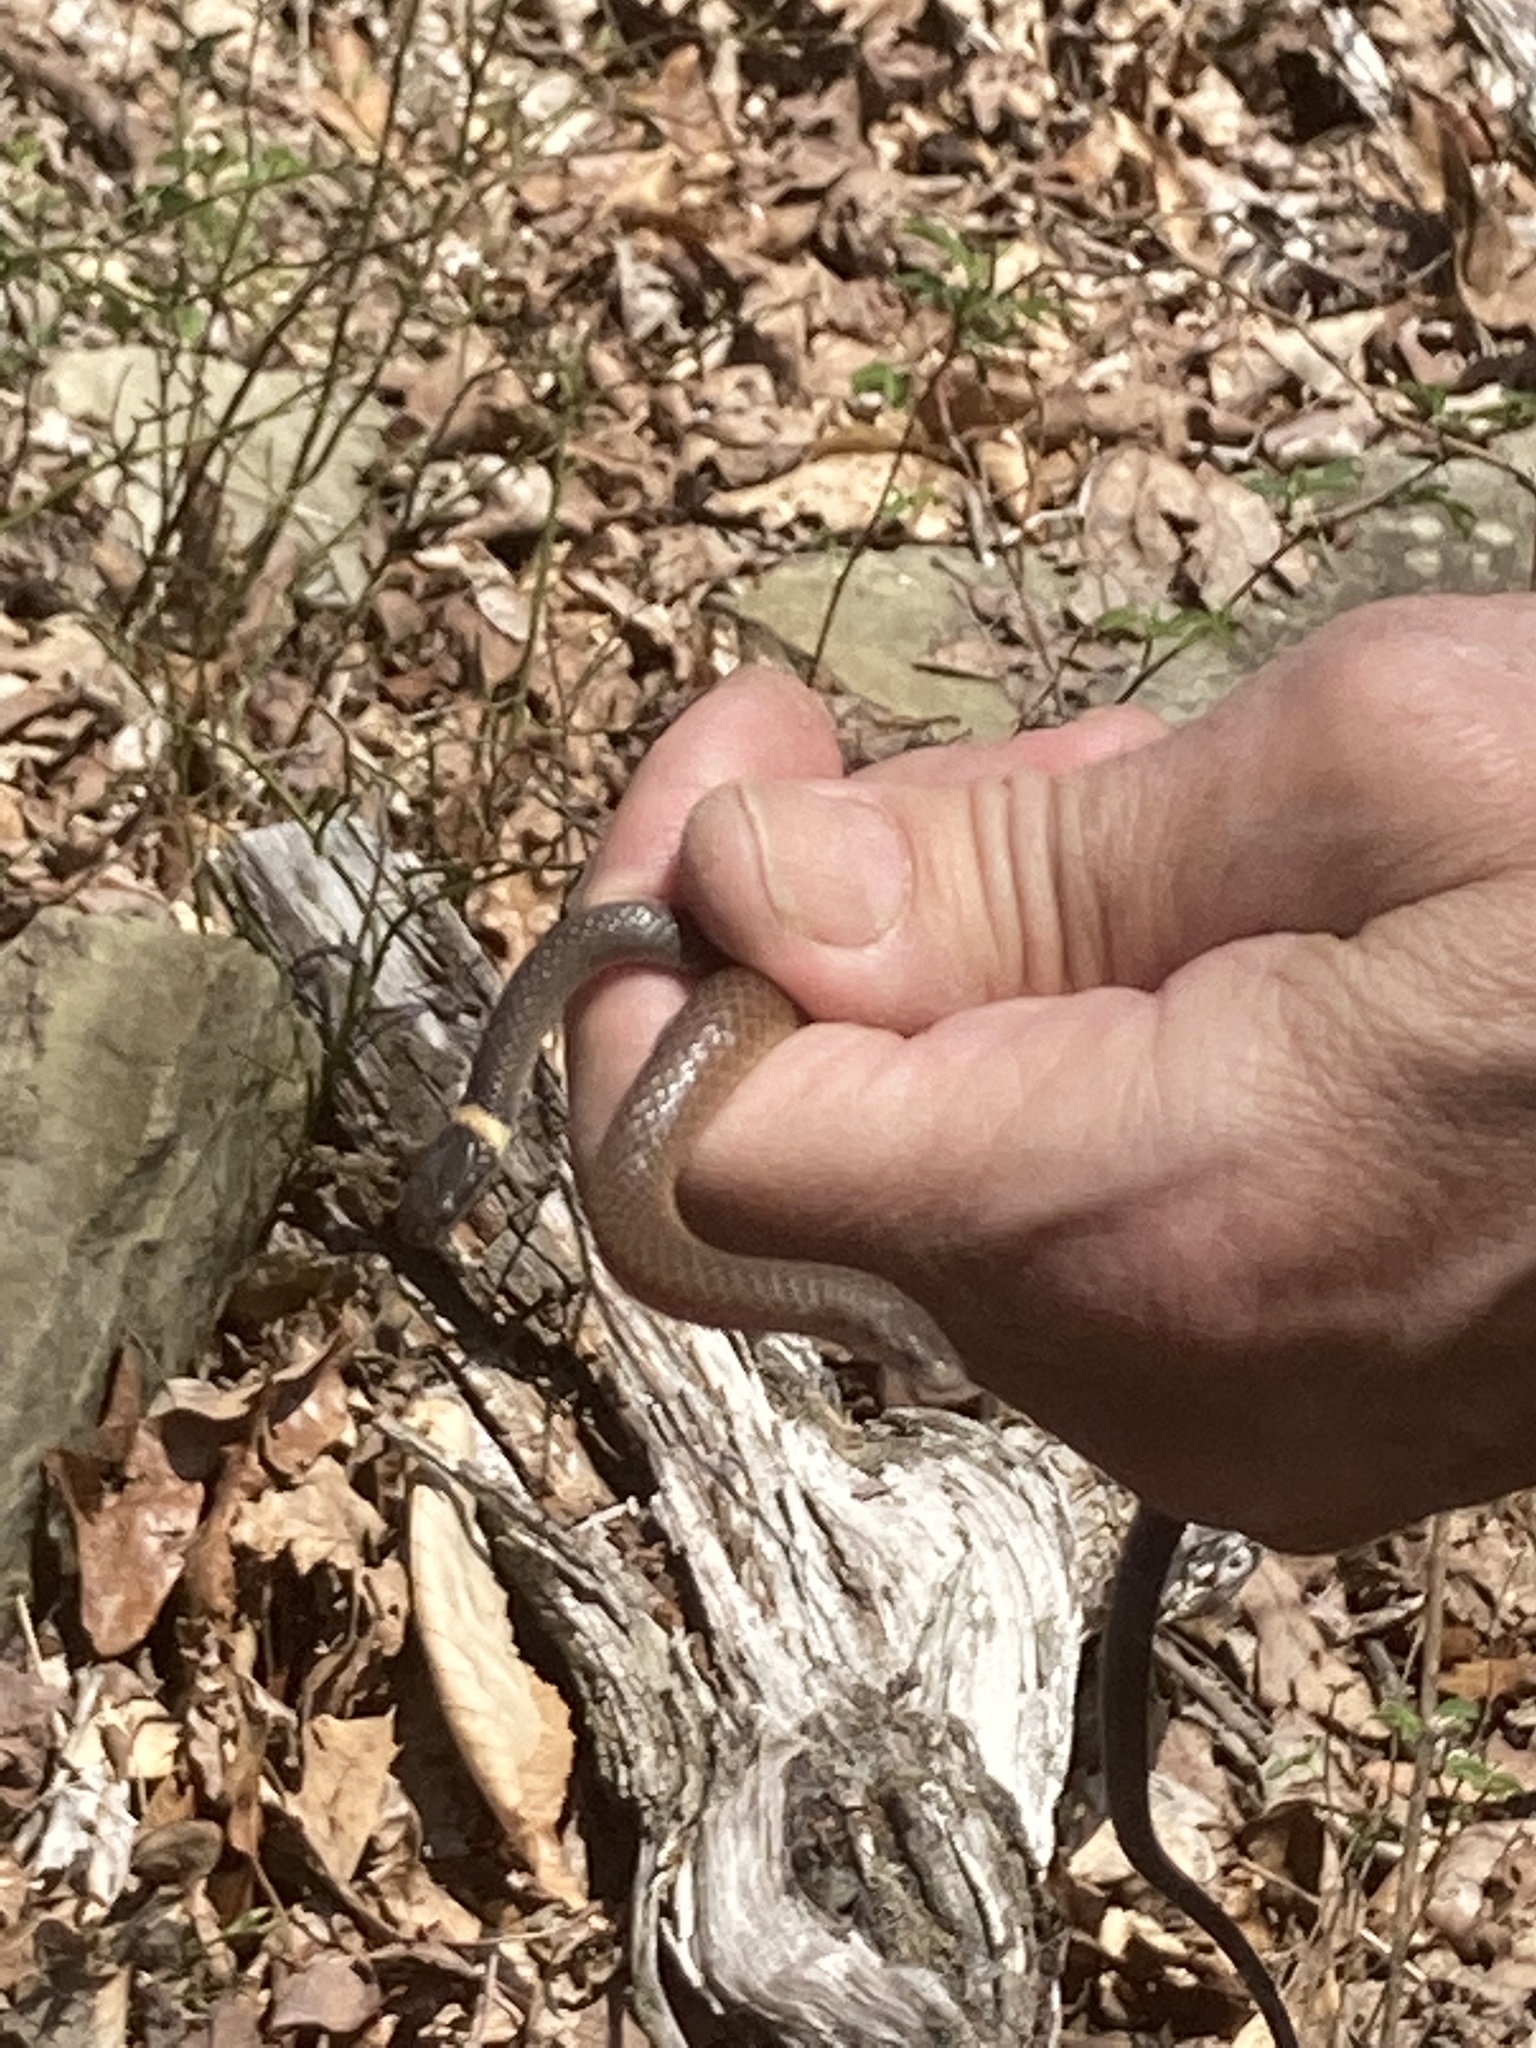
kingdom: Animalia
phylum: Chordata
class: Squamata
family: Colubridae
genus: Diadophis
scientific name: Diadophis punctatus
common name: Ringneck snake
